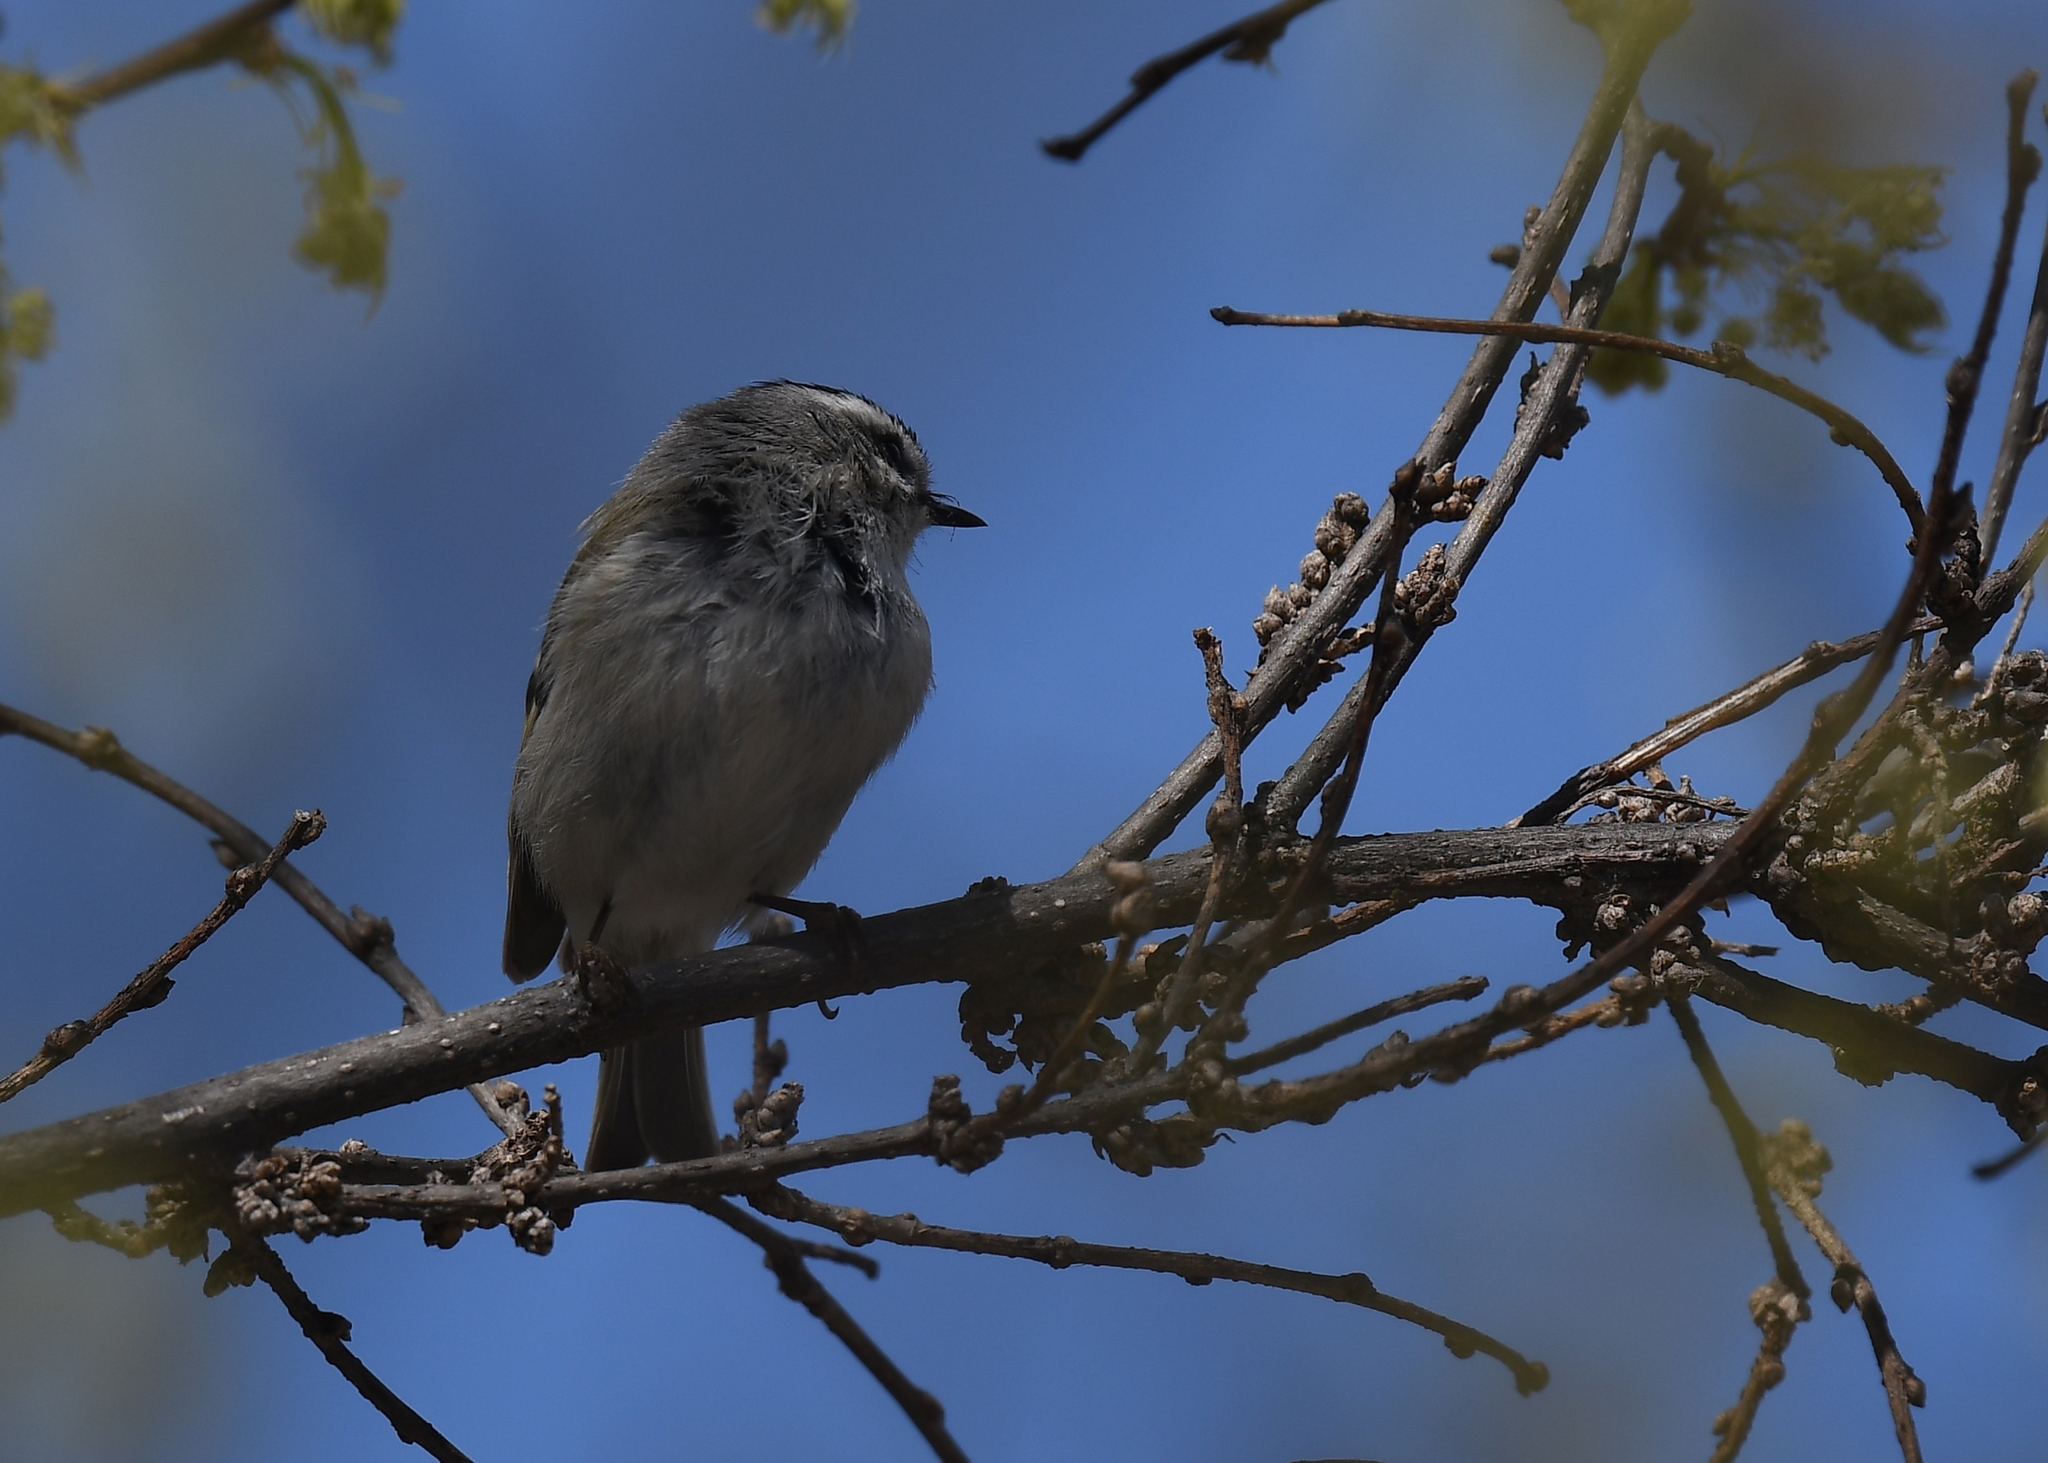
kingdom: Animalia
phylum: Chordata
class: Aves
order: Passeriformes
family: Regulidae
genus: Regulus
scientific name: Regulus satrapa
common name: Golden-crowned kinglet
